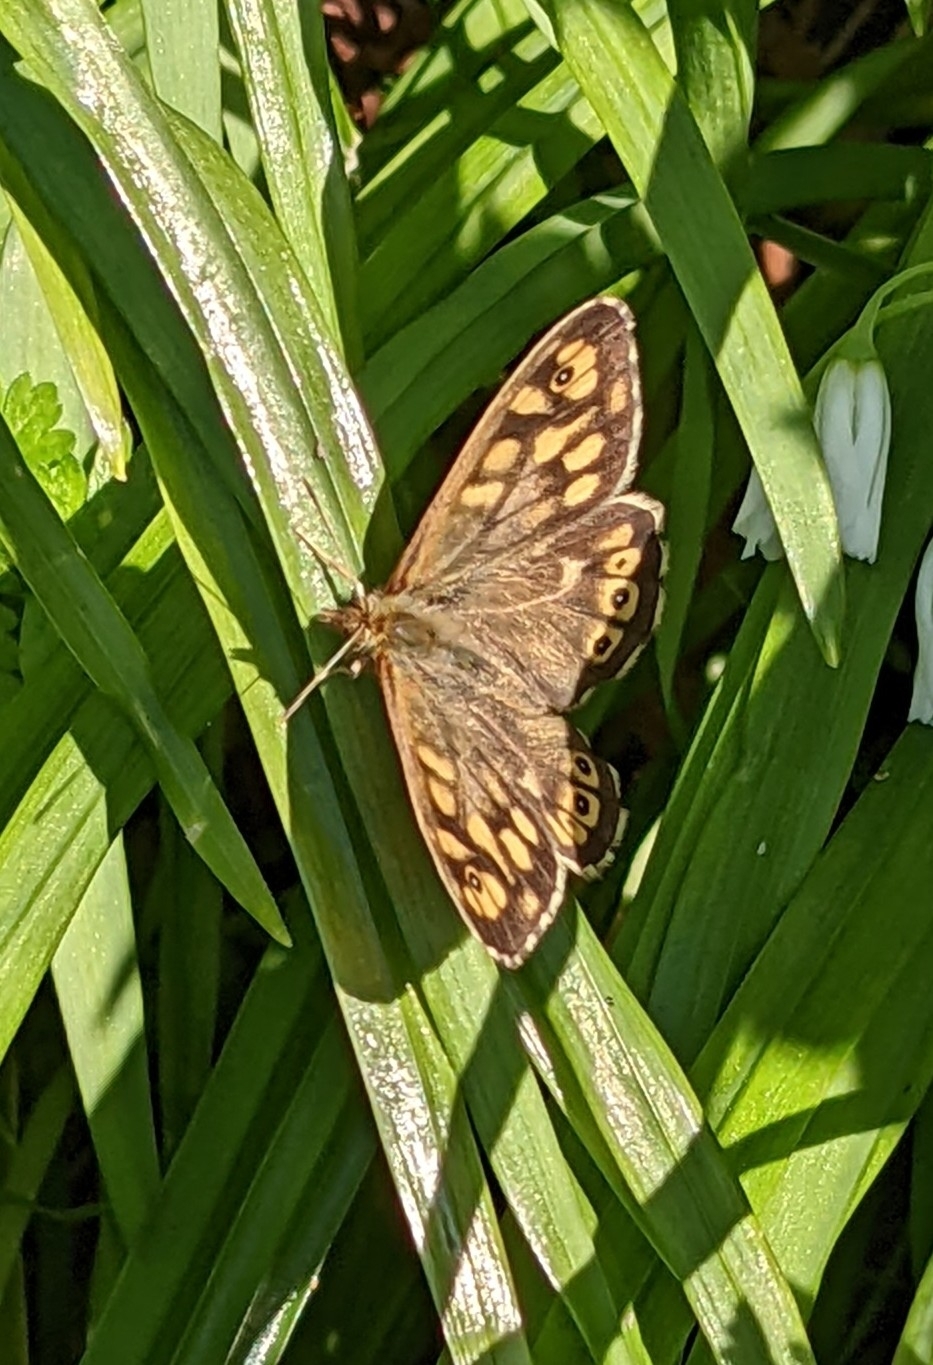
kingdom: Animalia
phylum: Arthropoda
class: Insecta
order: Lepidoptera
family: Nymphalidae
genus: Pararge
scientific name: Pararge aegeria
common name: Speckled wood
